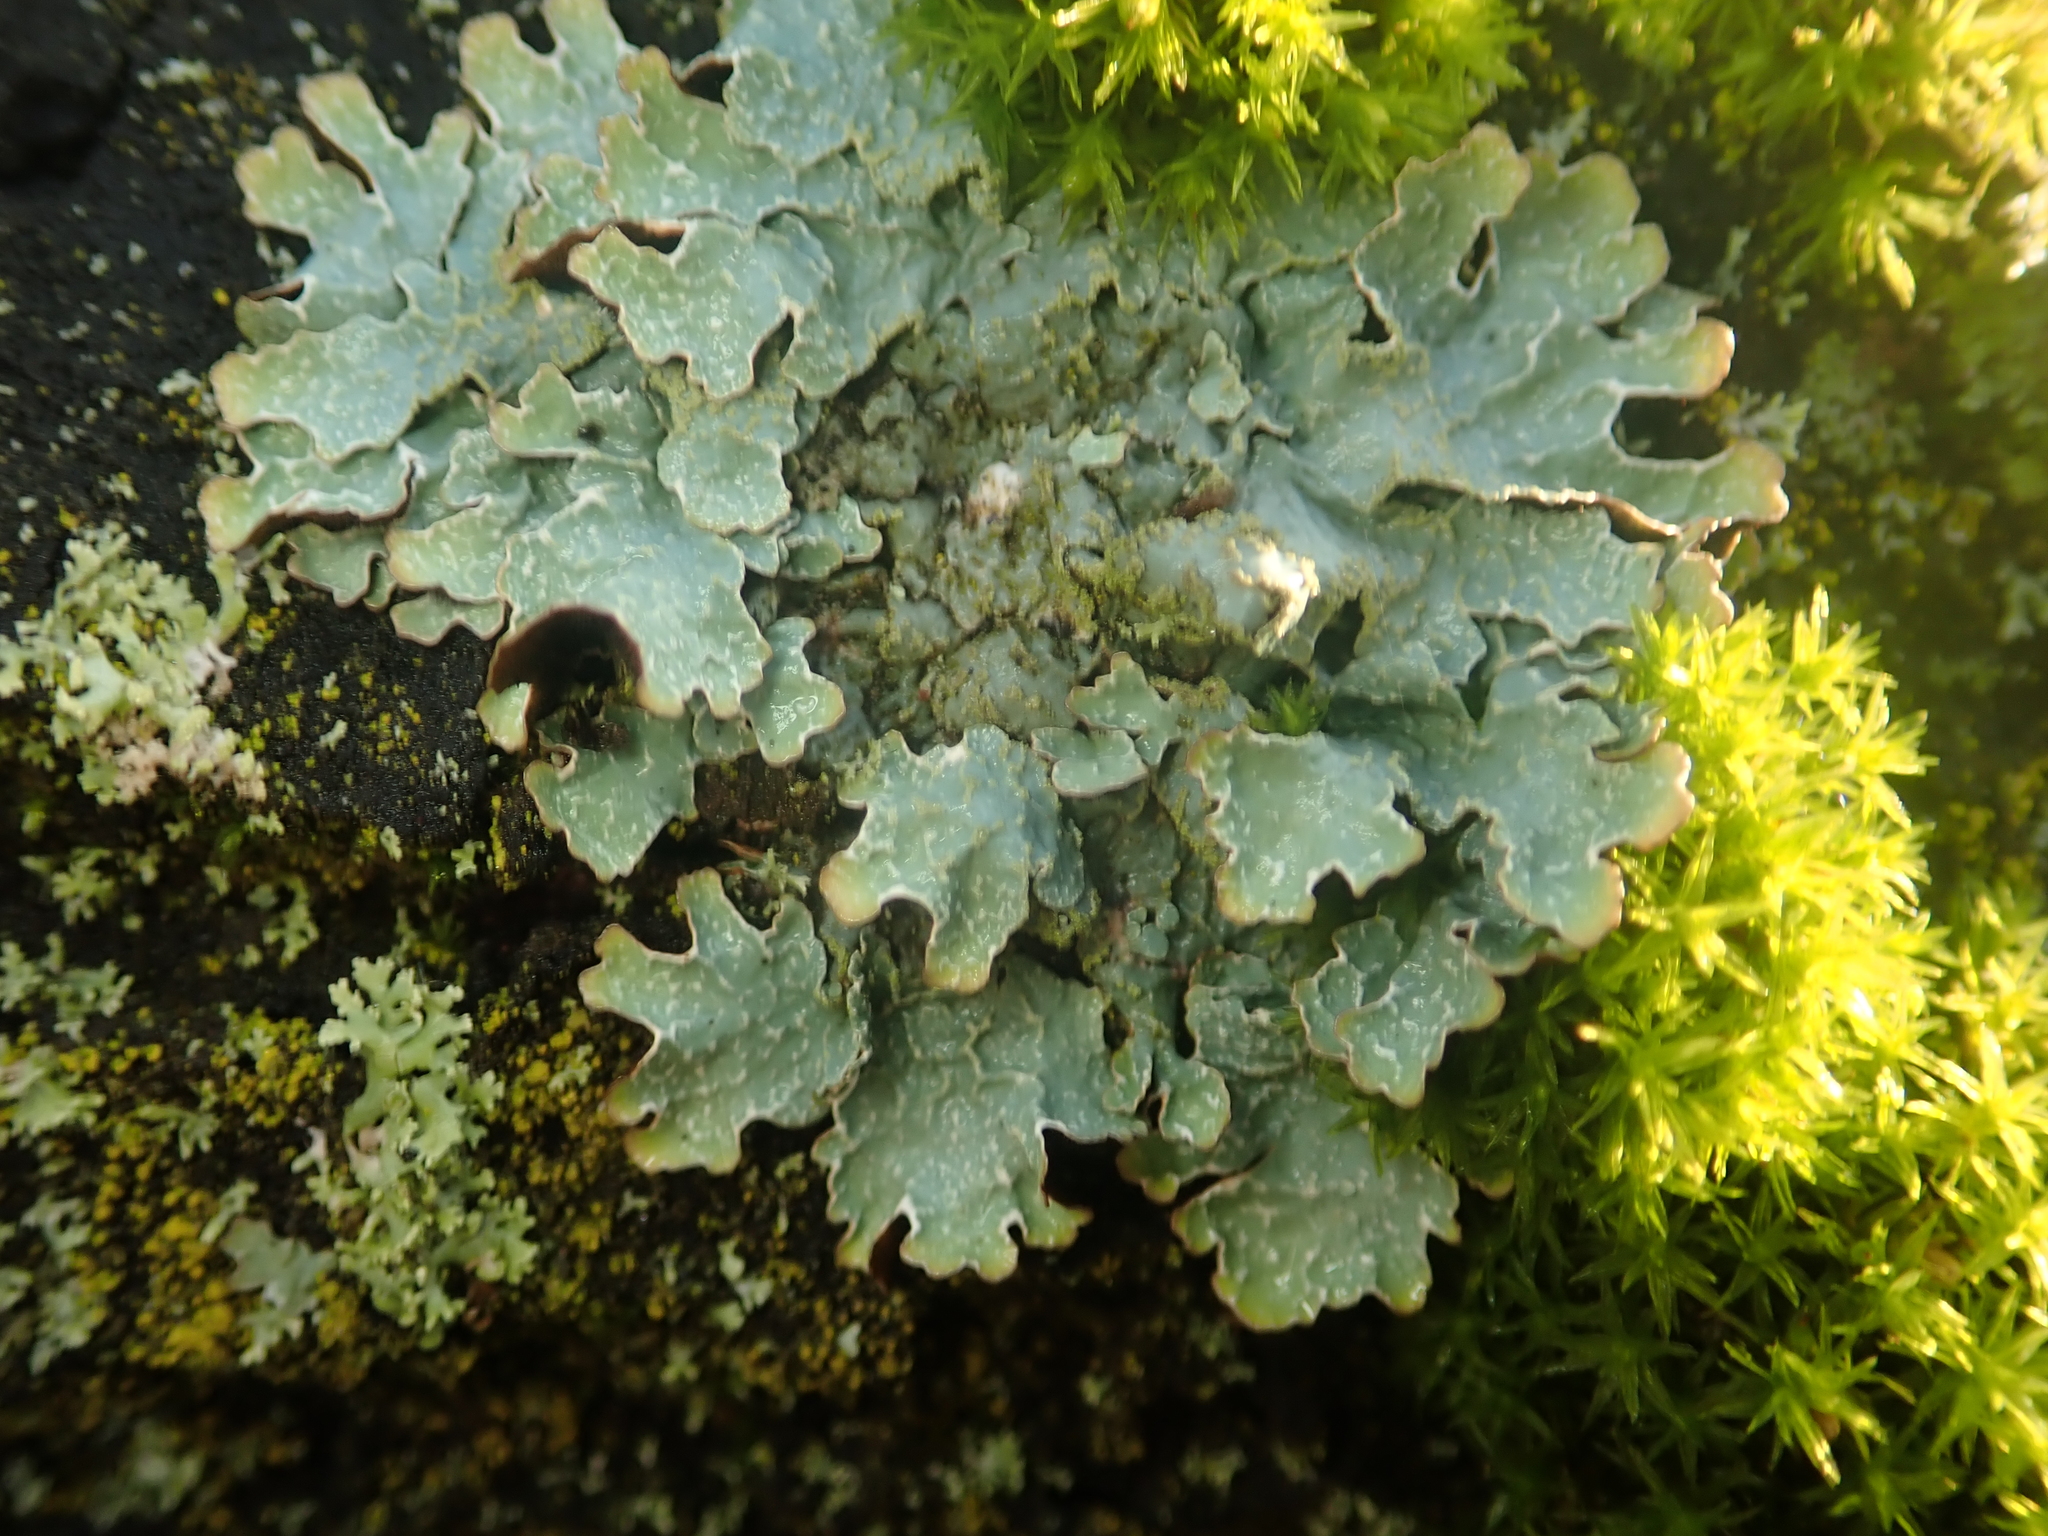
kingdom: Fungi
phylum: Ascomycota
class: Lecanoromycetes
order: Lecanorales
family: Parmeliaceae
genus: Parmelia
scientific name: Parmelia sulcata
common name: Netted shield lichen
